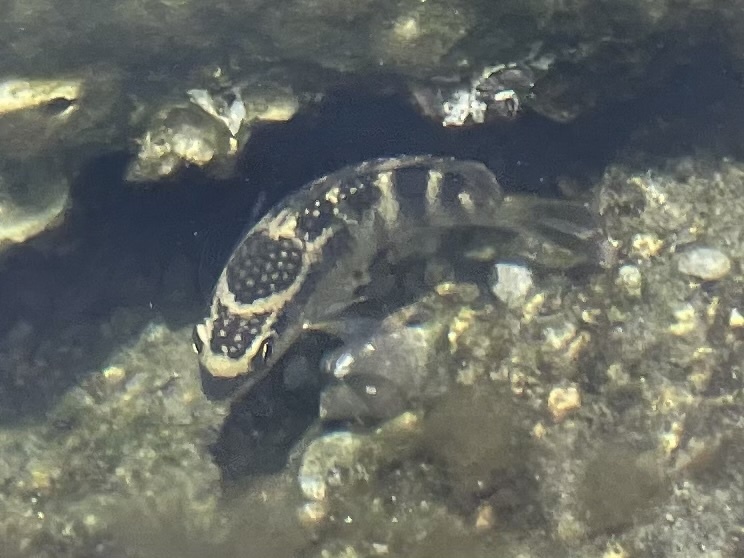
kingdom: Animalia
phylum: Chordata
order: Perciformes
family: Pomacentridae
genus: Abudefduf
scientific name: Abudefduf concolor
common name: Dusky seargent
